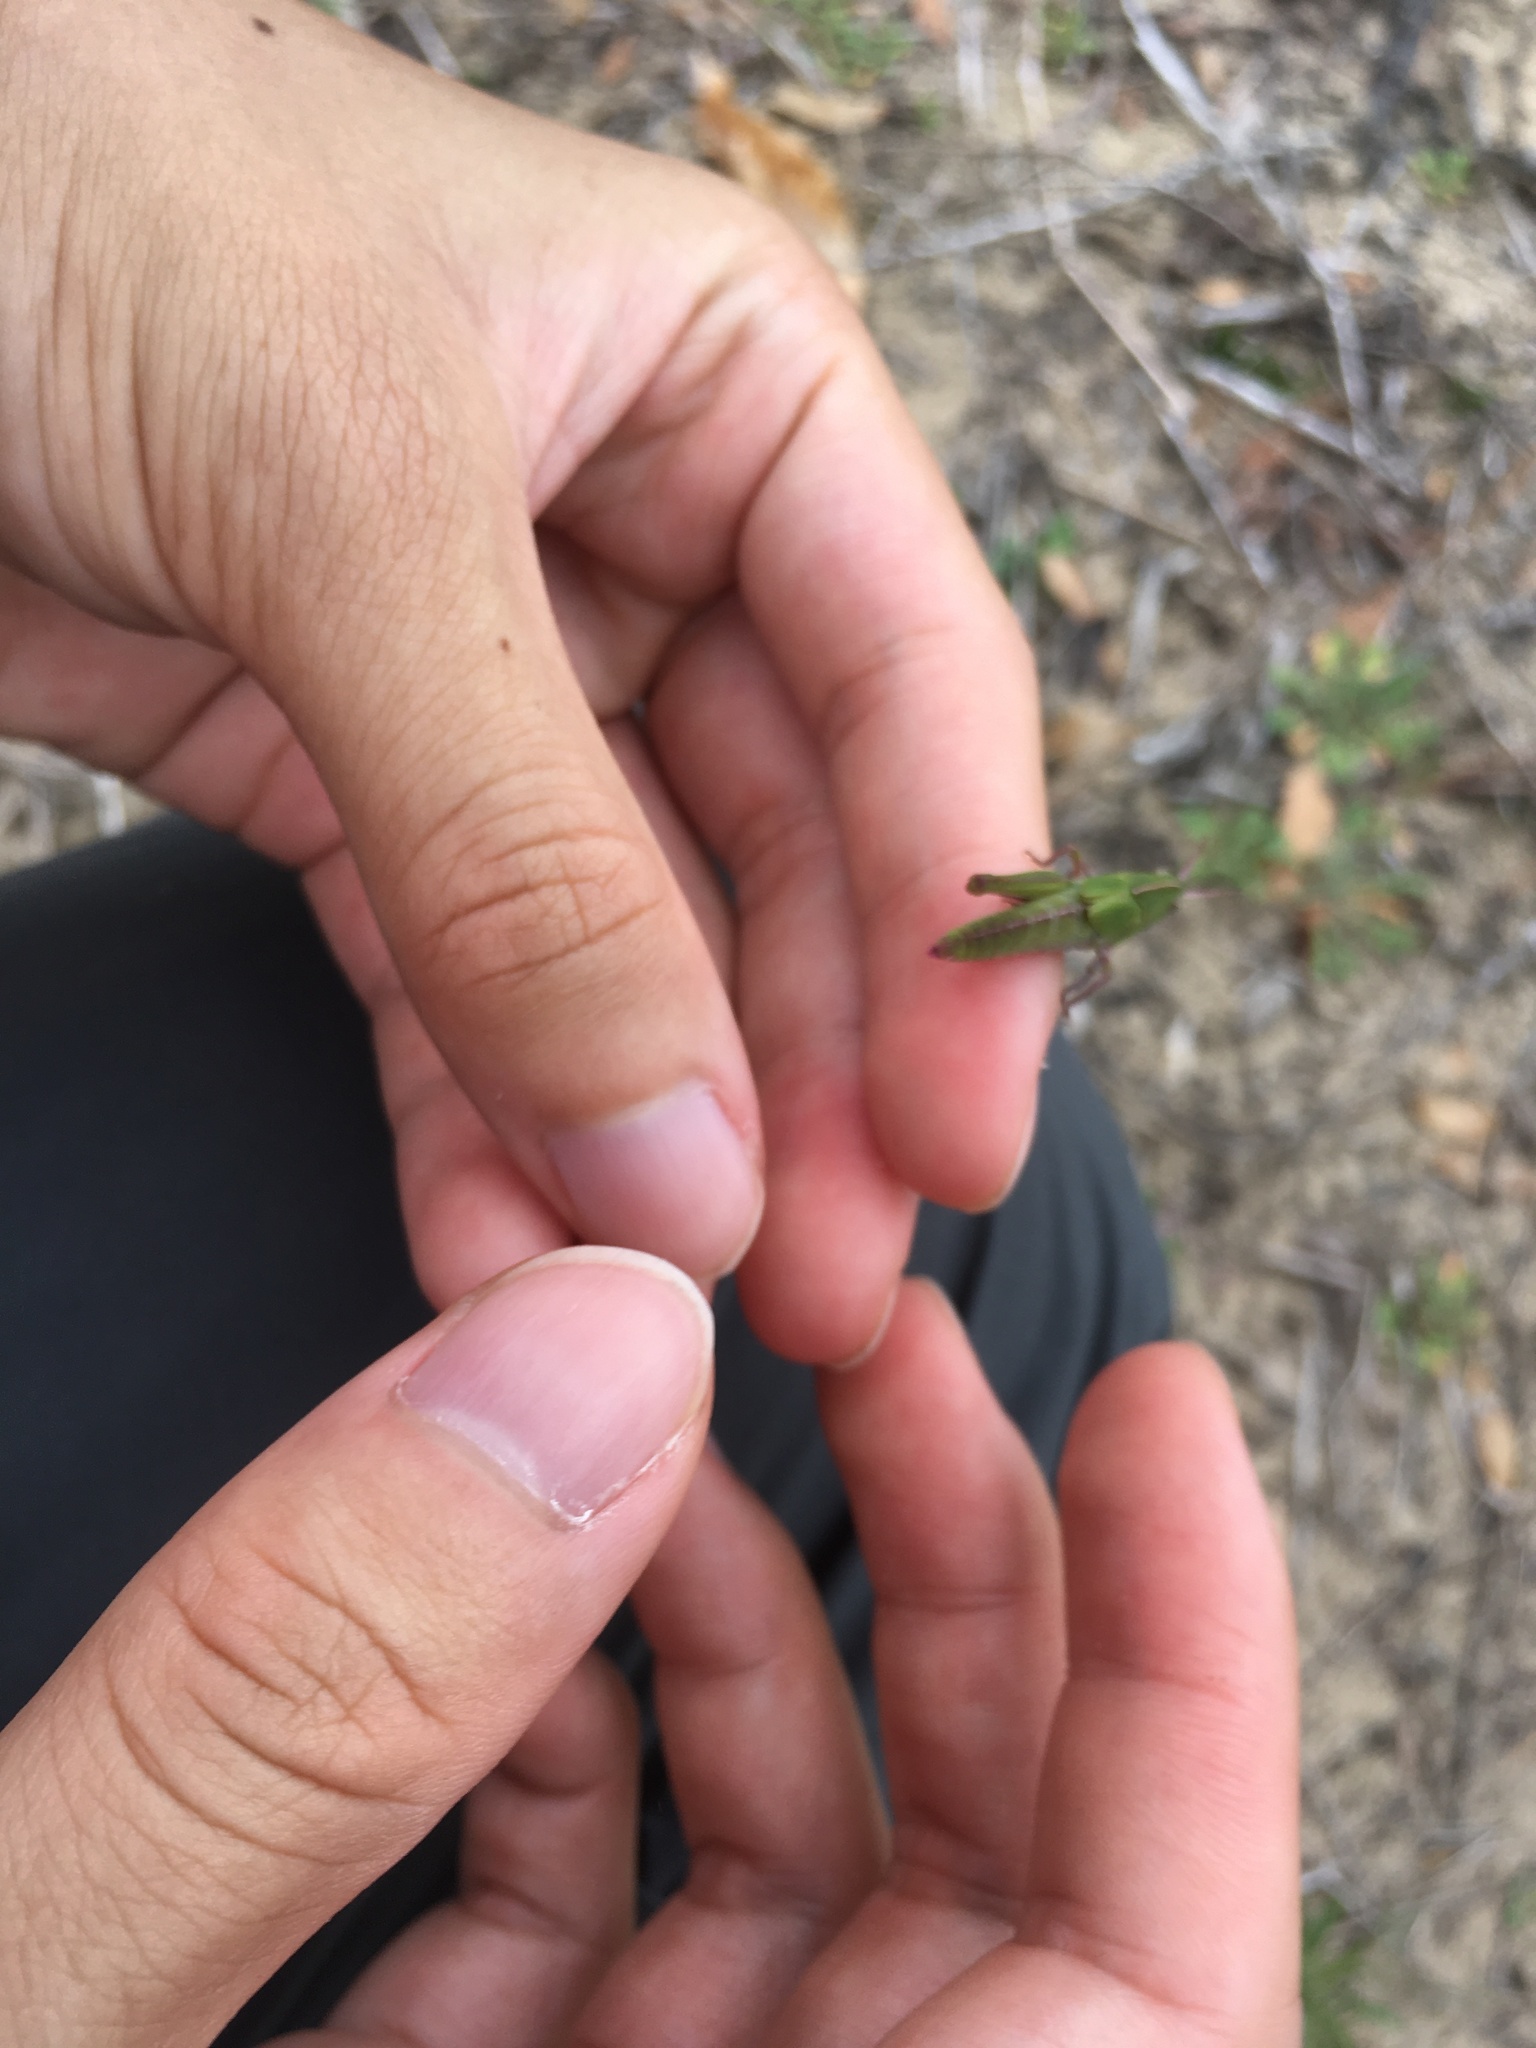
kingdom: Animalia
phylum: Arthropoda
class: Insecta
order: Orthoptera
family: Acrididae
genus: Chortophaga
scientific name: Chortophaga viridifasciata
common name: Green-striped grasshopper
